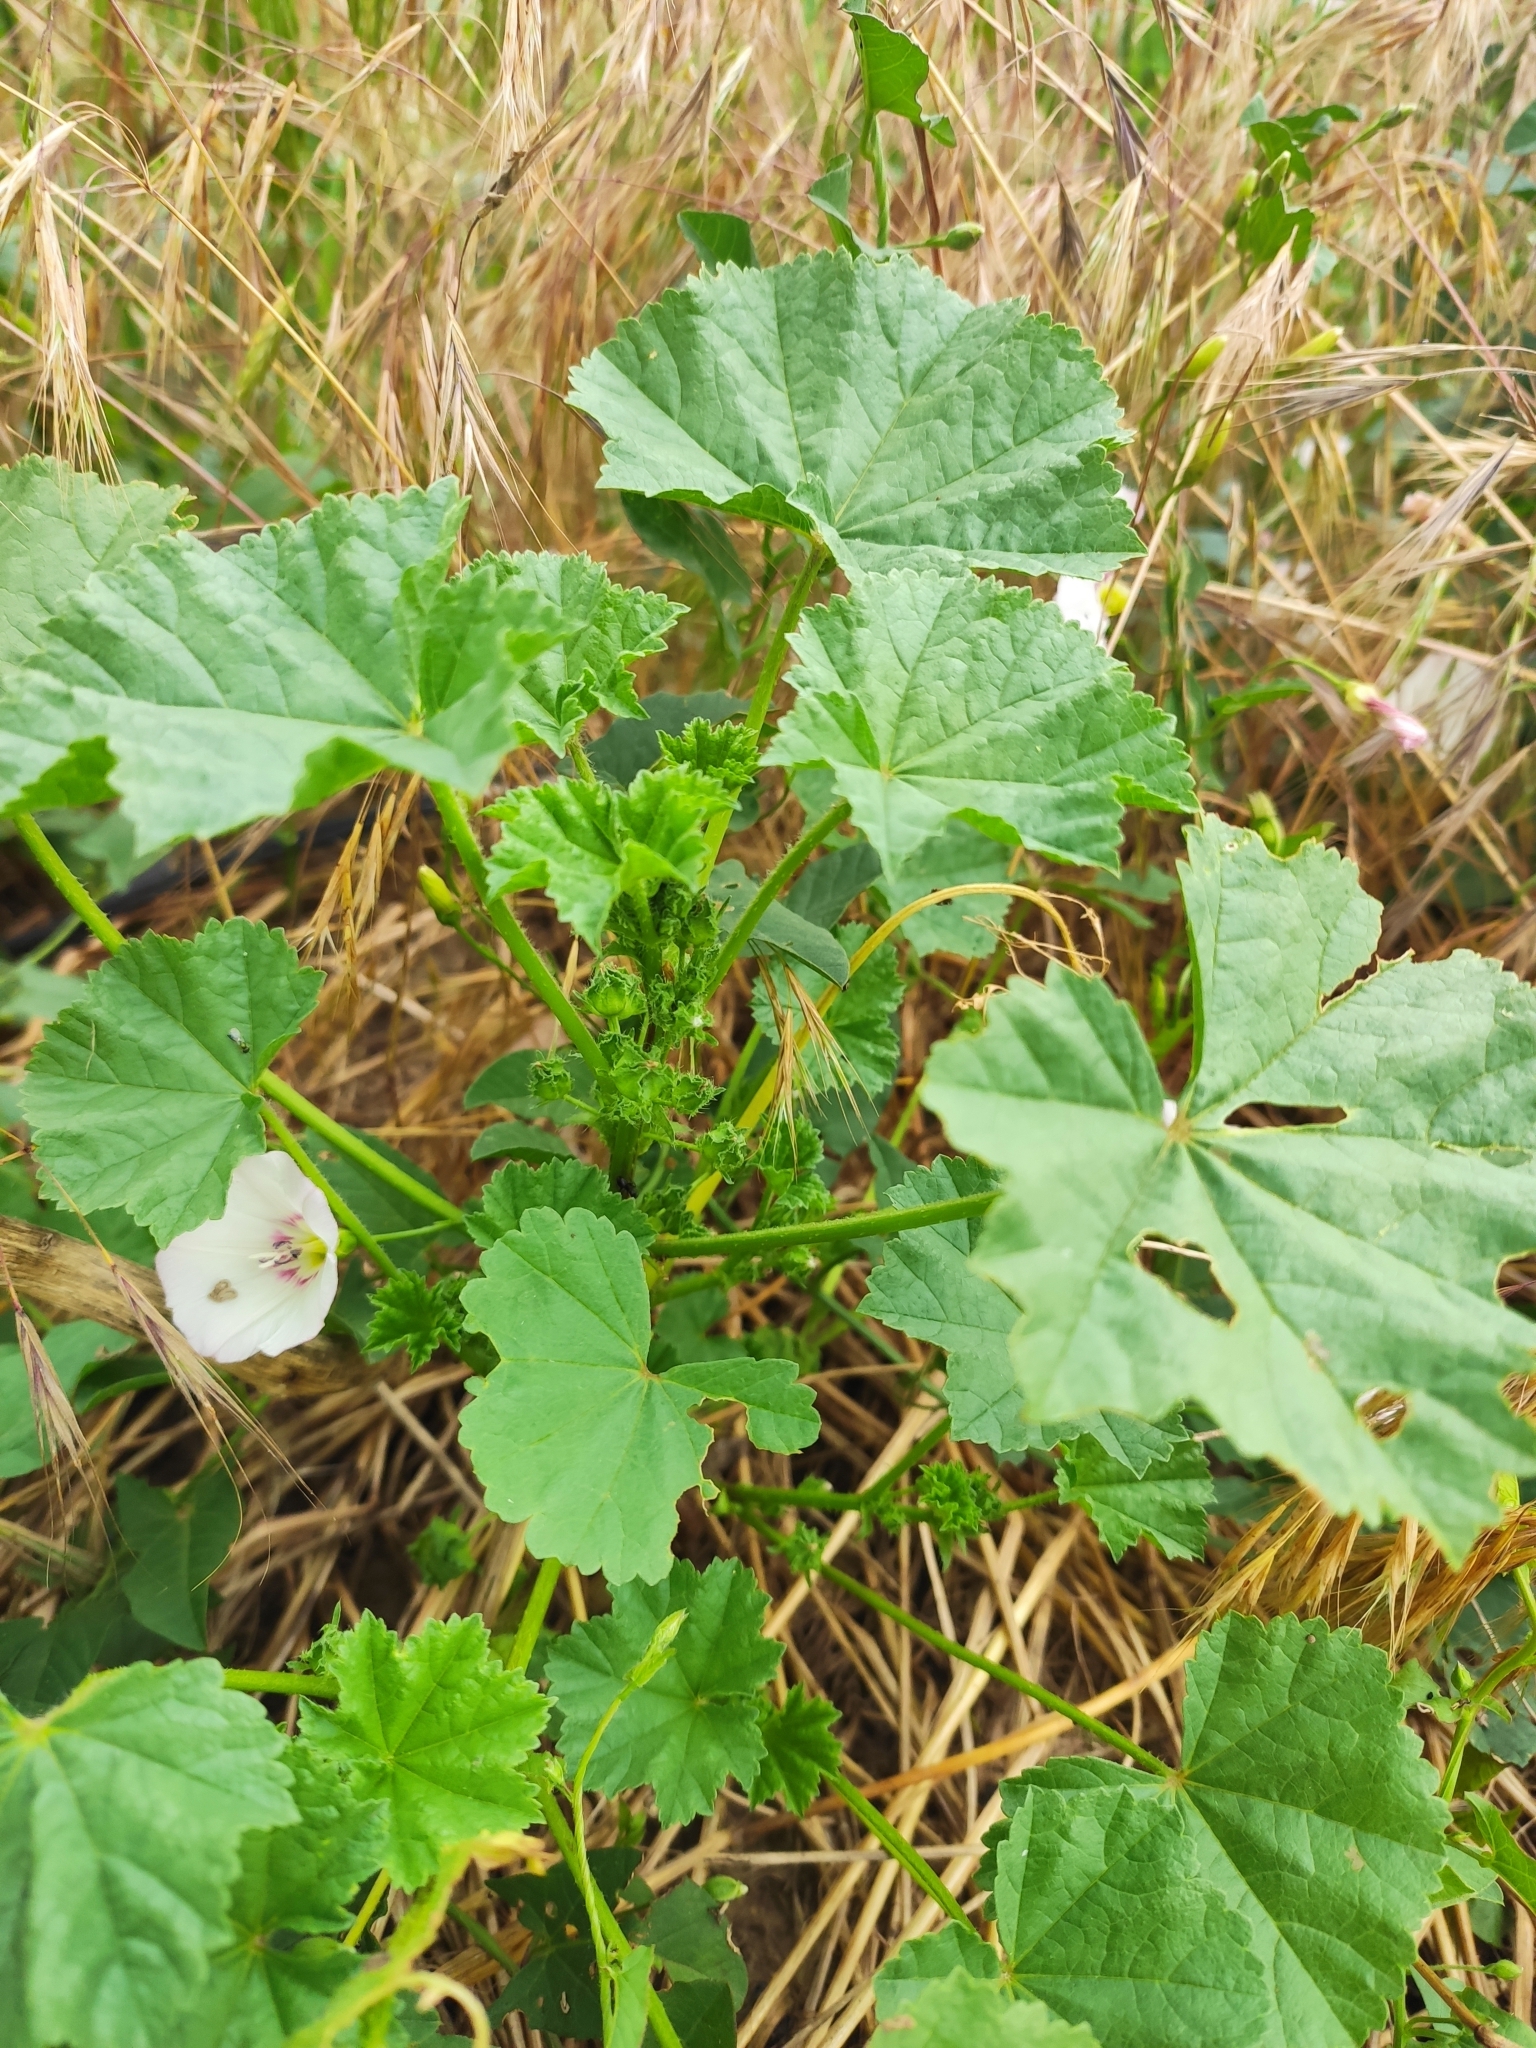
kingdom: Plantae
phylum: Tracheophyta
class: Magnoliopsida
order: Malvales
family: Malvaceae
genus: Malva
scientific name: Malva pusilla
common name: Small mallow
